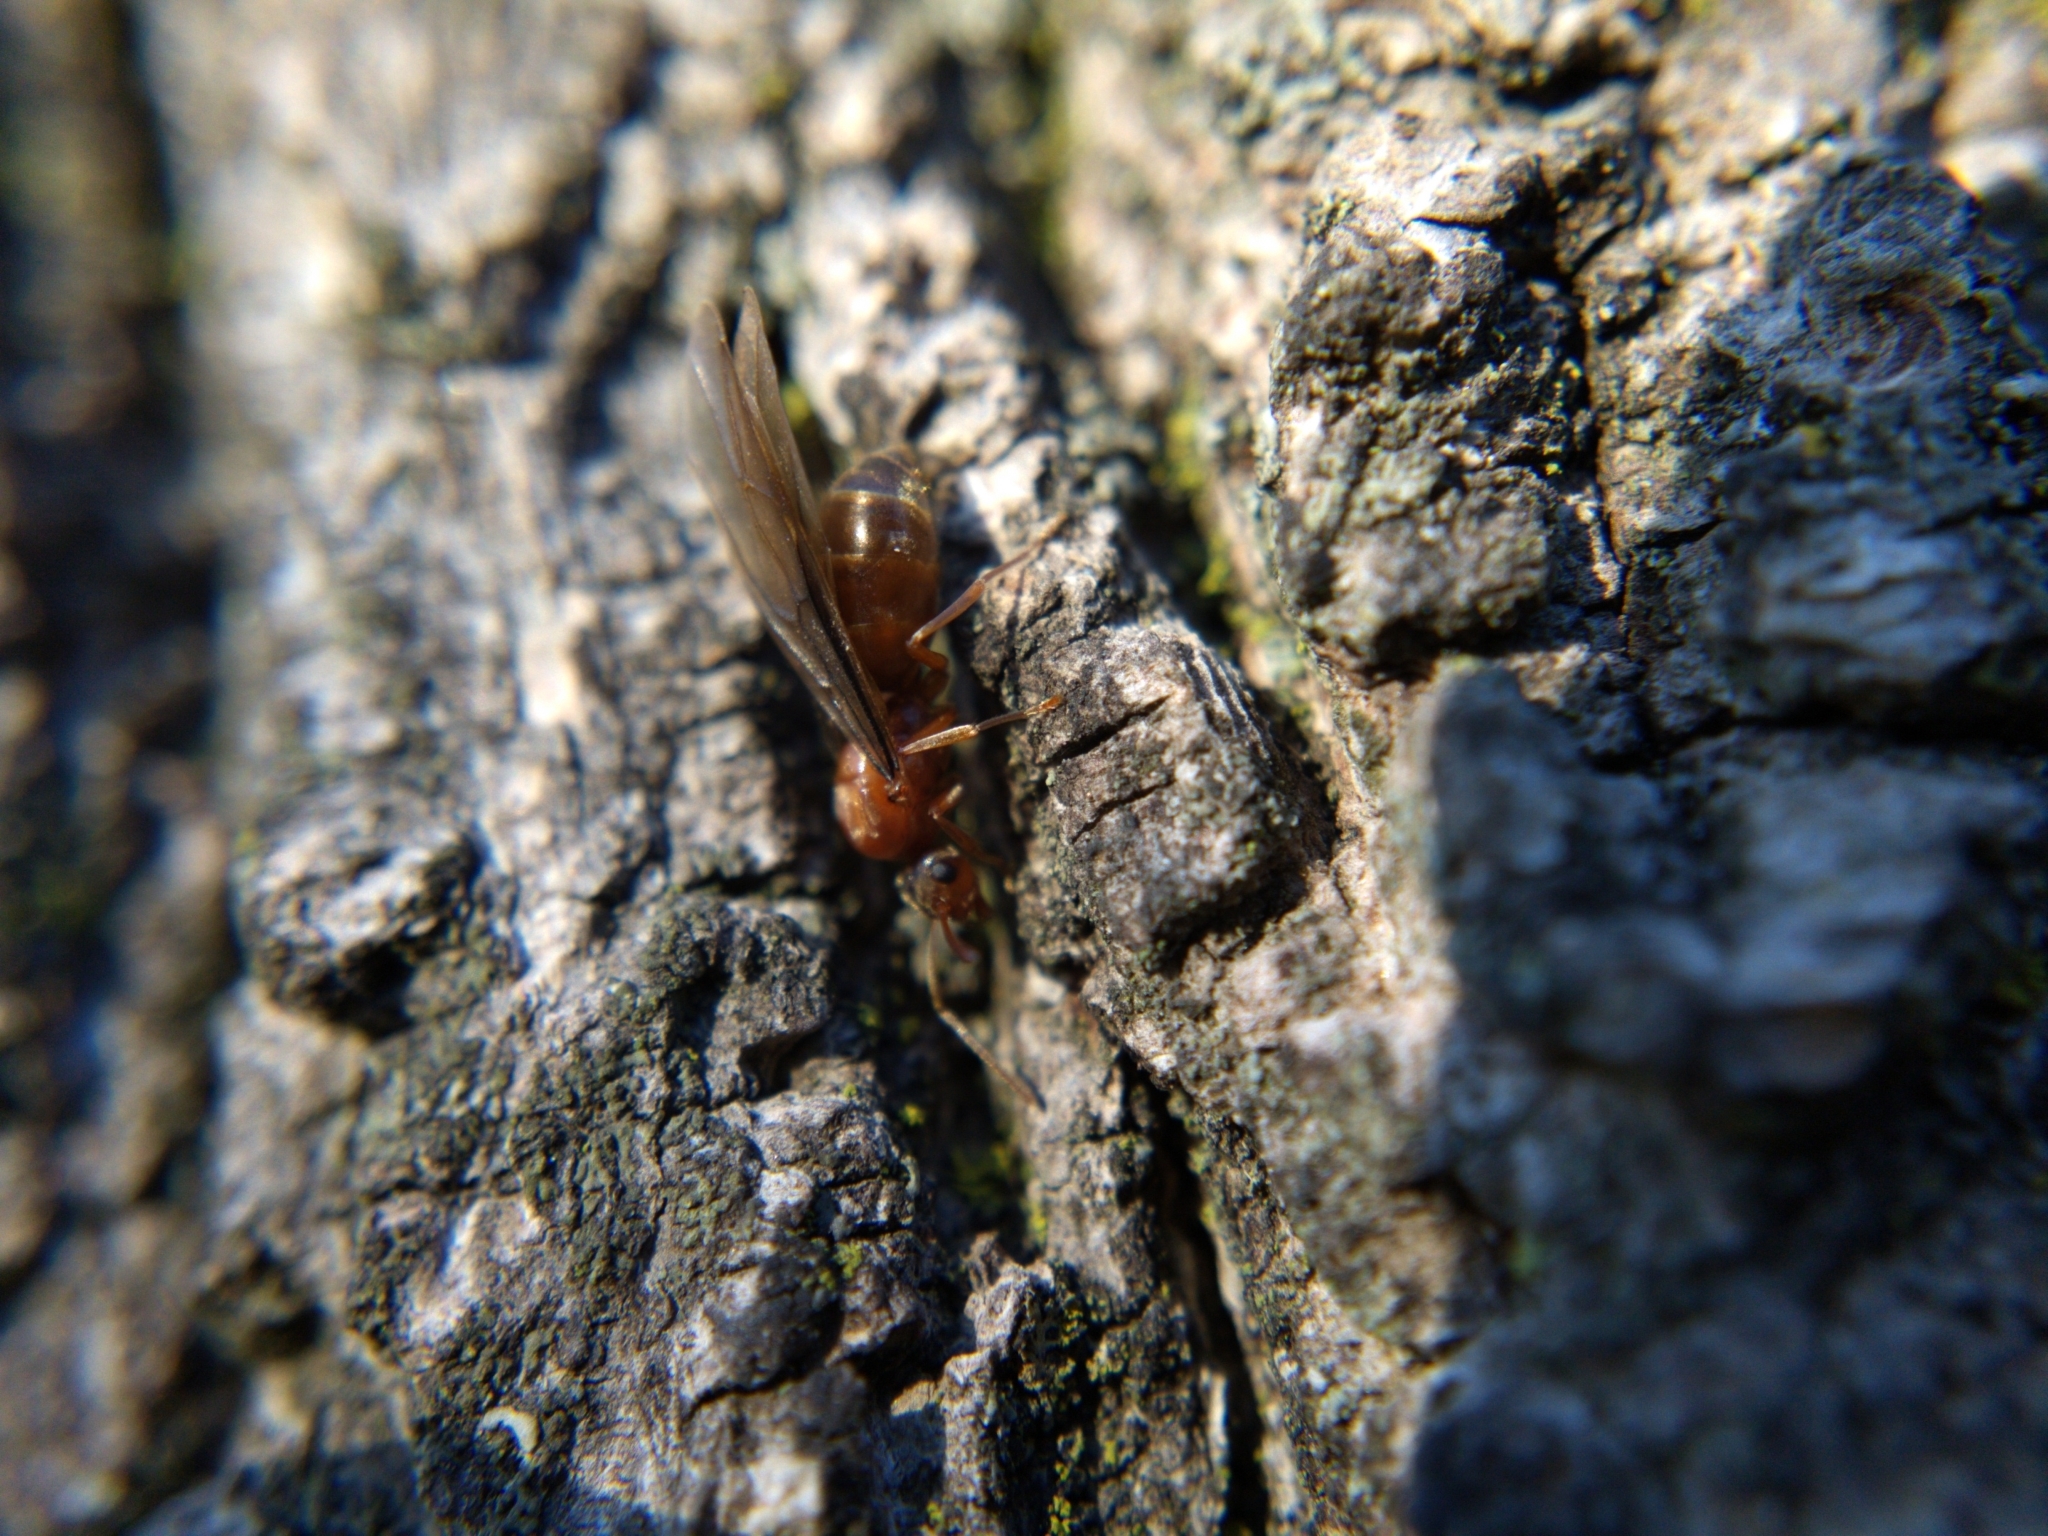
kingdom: Animalia
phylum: Arthropoda
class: Insecta
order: Hymenoptera
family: Formicidae
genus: Prenolepis
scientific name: Prenolepis imparis
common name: Small honey ant
